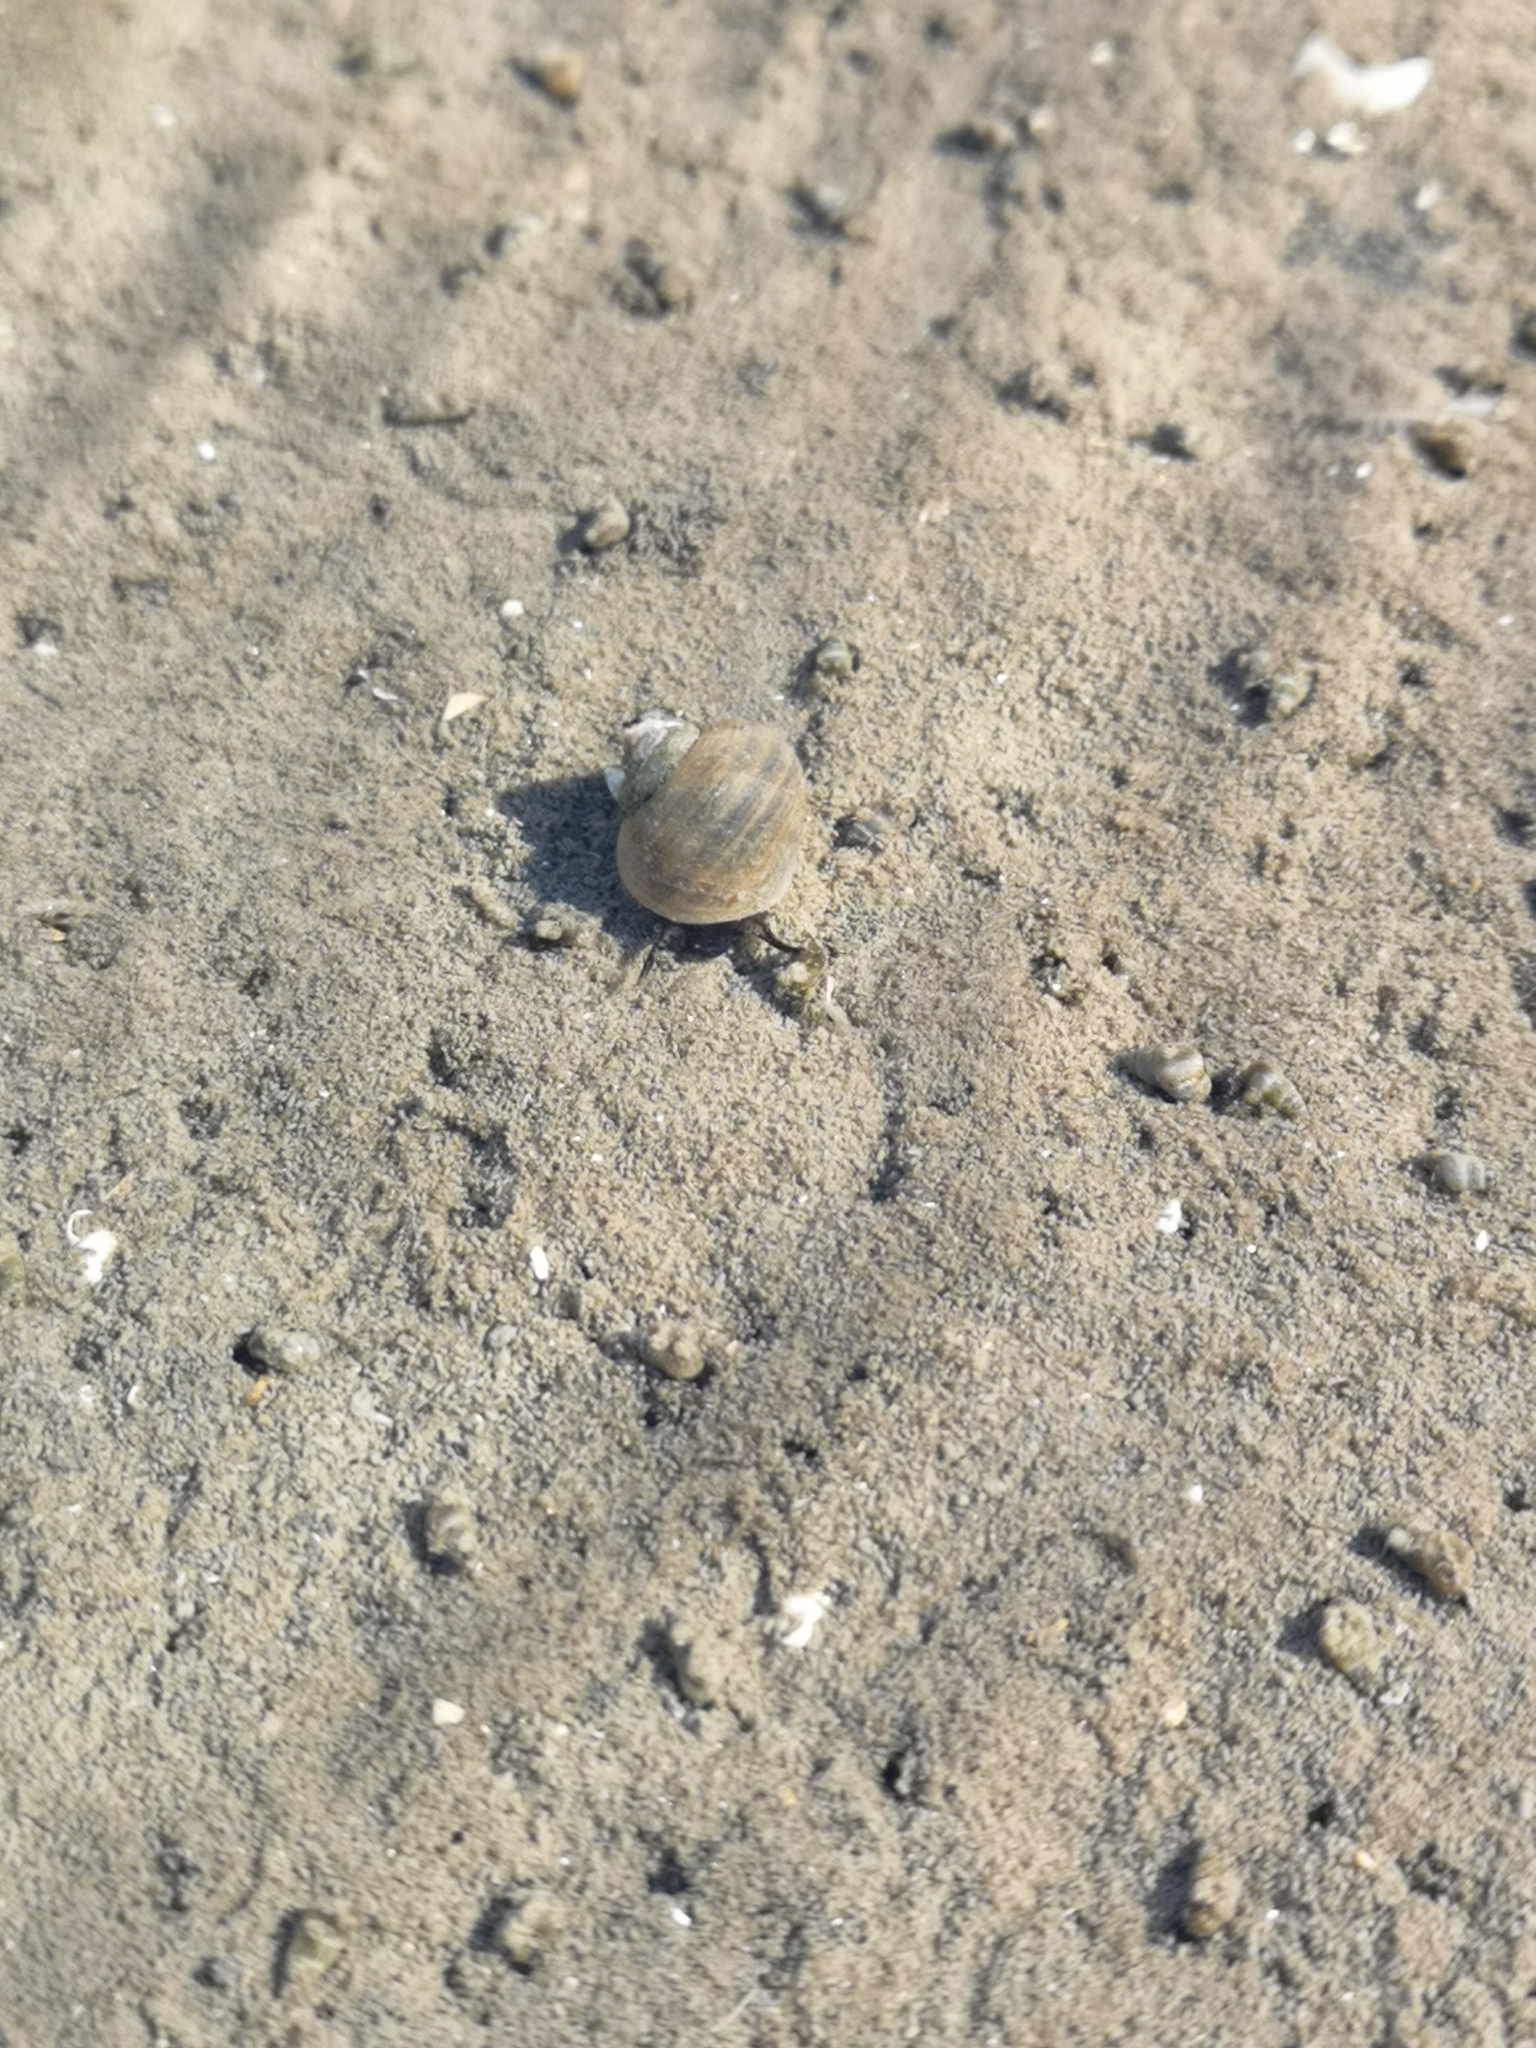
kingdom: Animalia
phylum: Mollusca
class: Gastropoda
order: Littorinimorpha
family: Littorinidae
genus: Littorina
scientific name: Littorina littorea
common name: Common periwinkle
